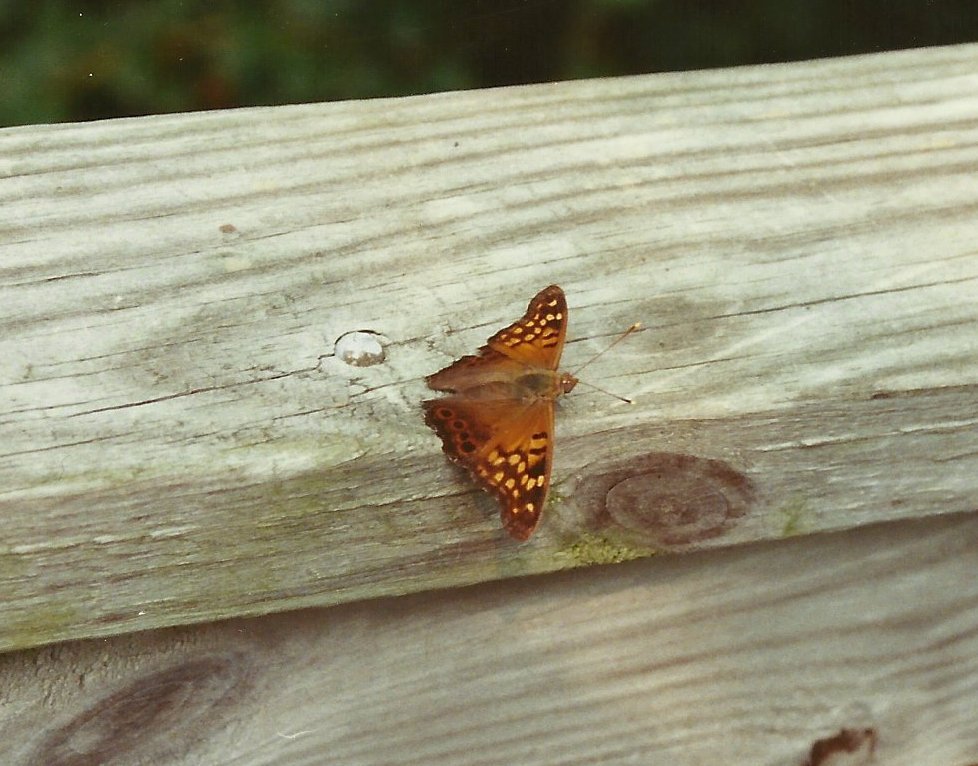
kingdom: Animalia
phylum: Arthropoda
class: Insecta
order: Lepidoptera
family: Nymphalidae
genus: Asterocampa
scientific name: Asterocampa clyton
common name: Tawny emperor
